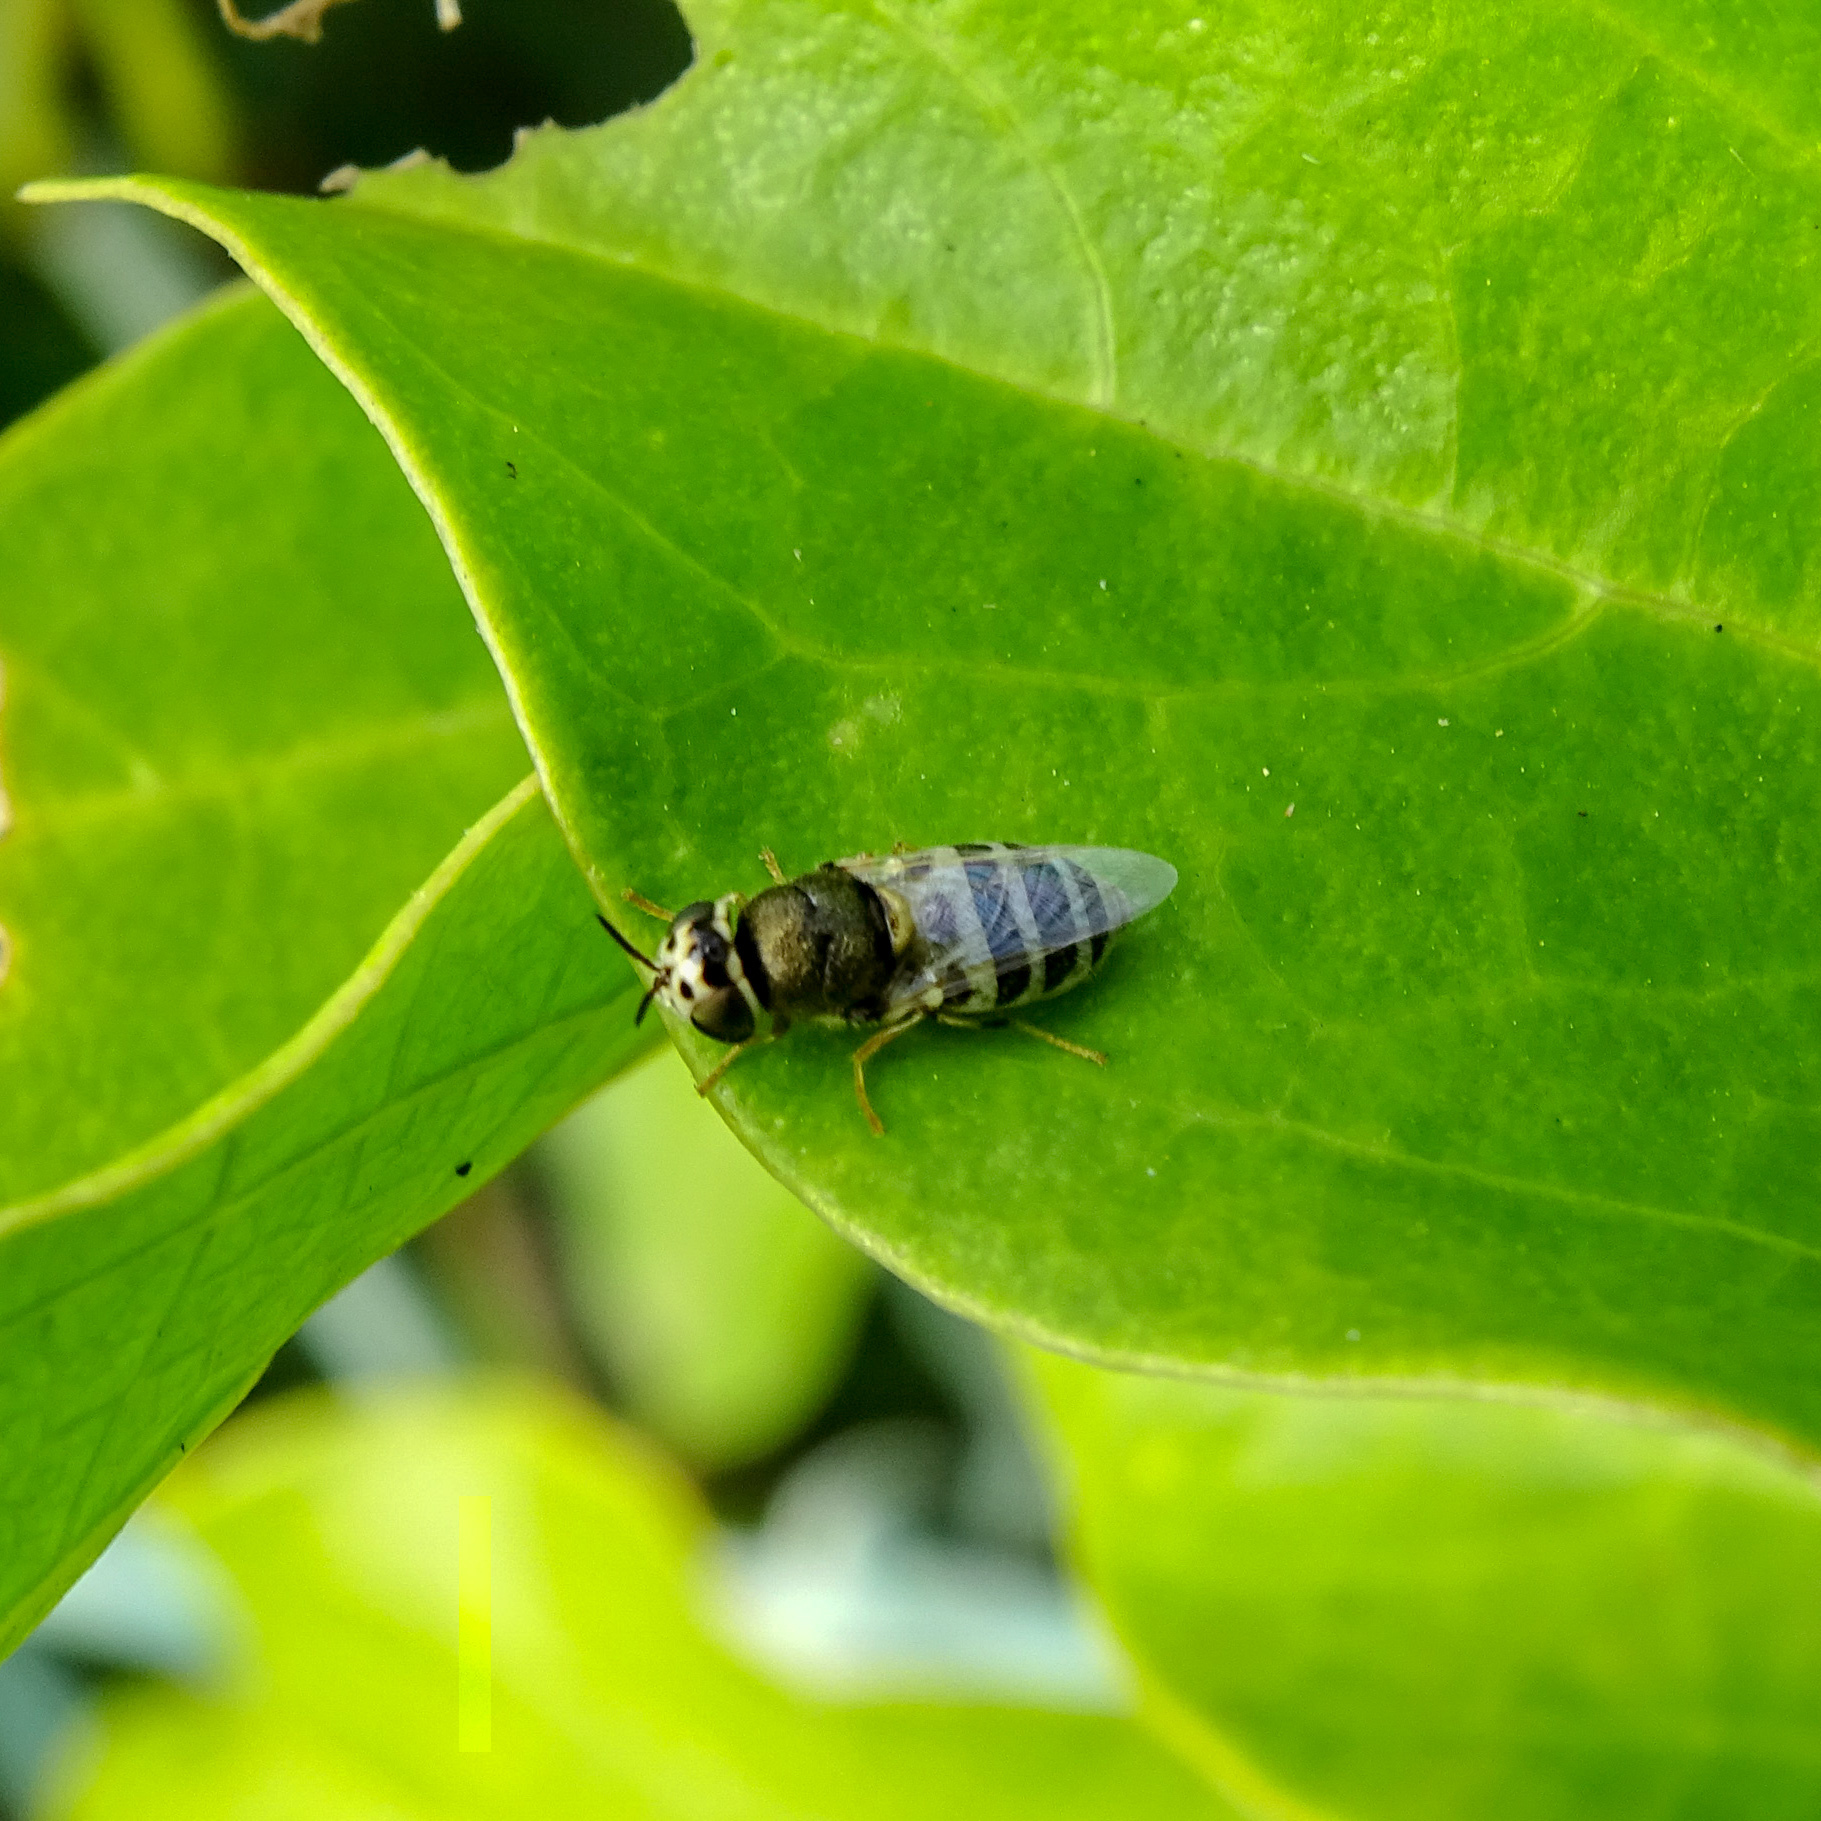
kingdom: Animalia
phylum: Arthropoda
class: Insecta
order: Diptera
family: Stratiomyidae
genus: Oplodontha
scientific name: Oplodontha minuta
